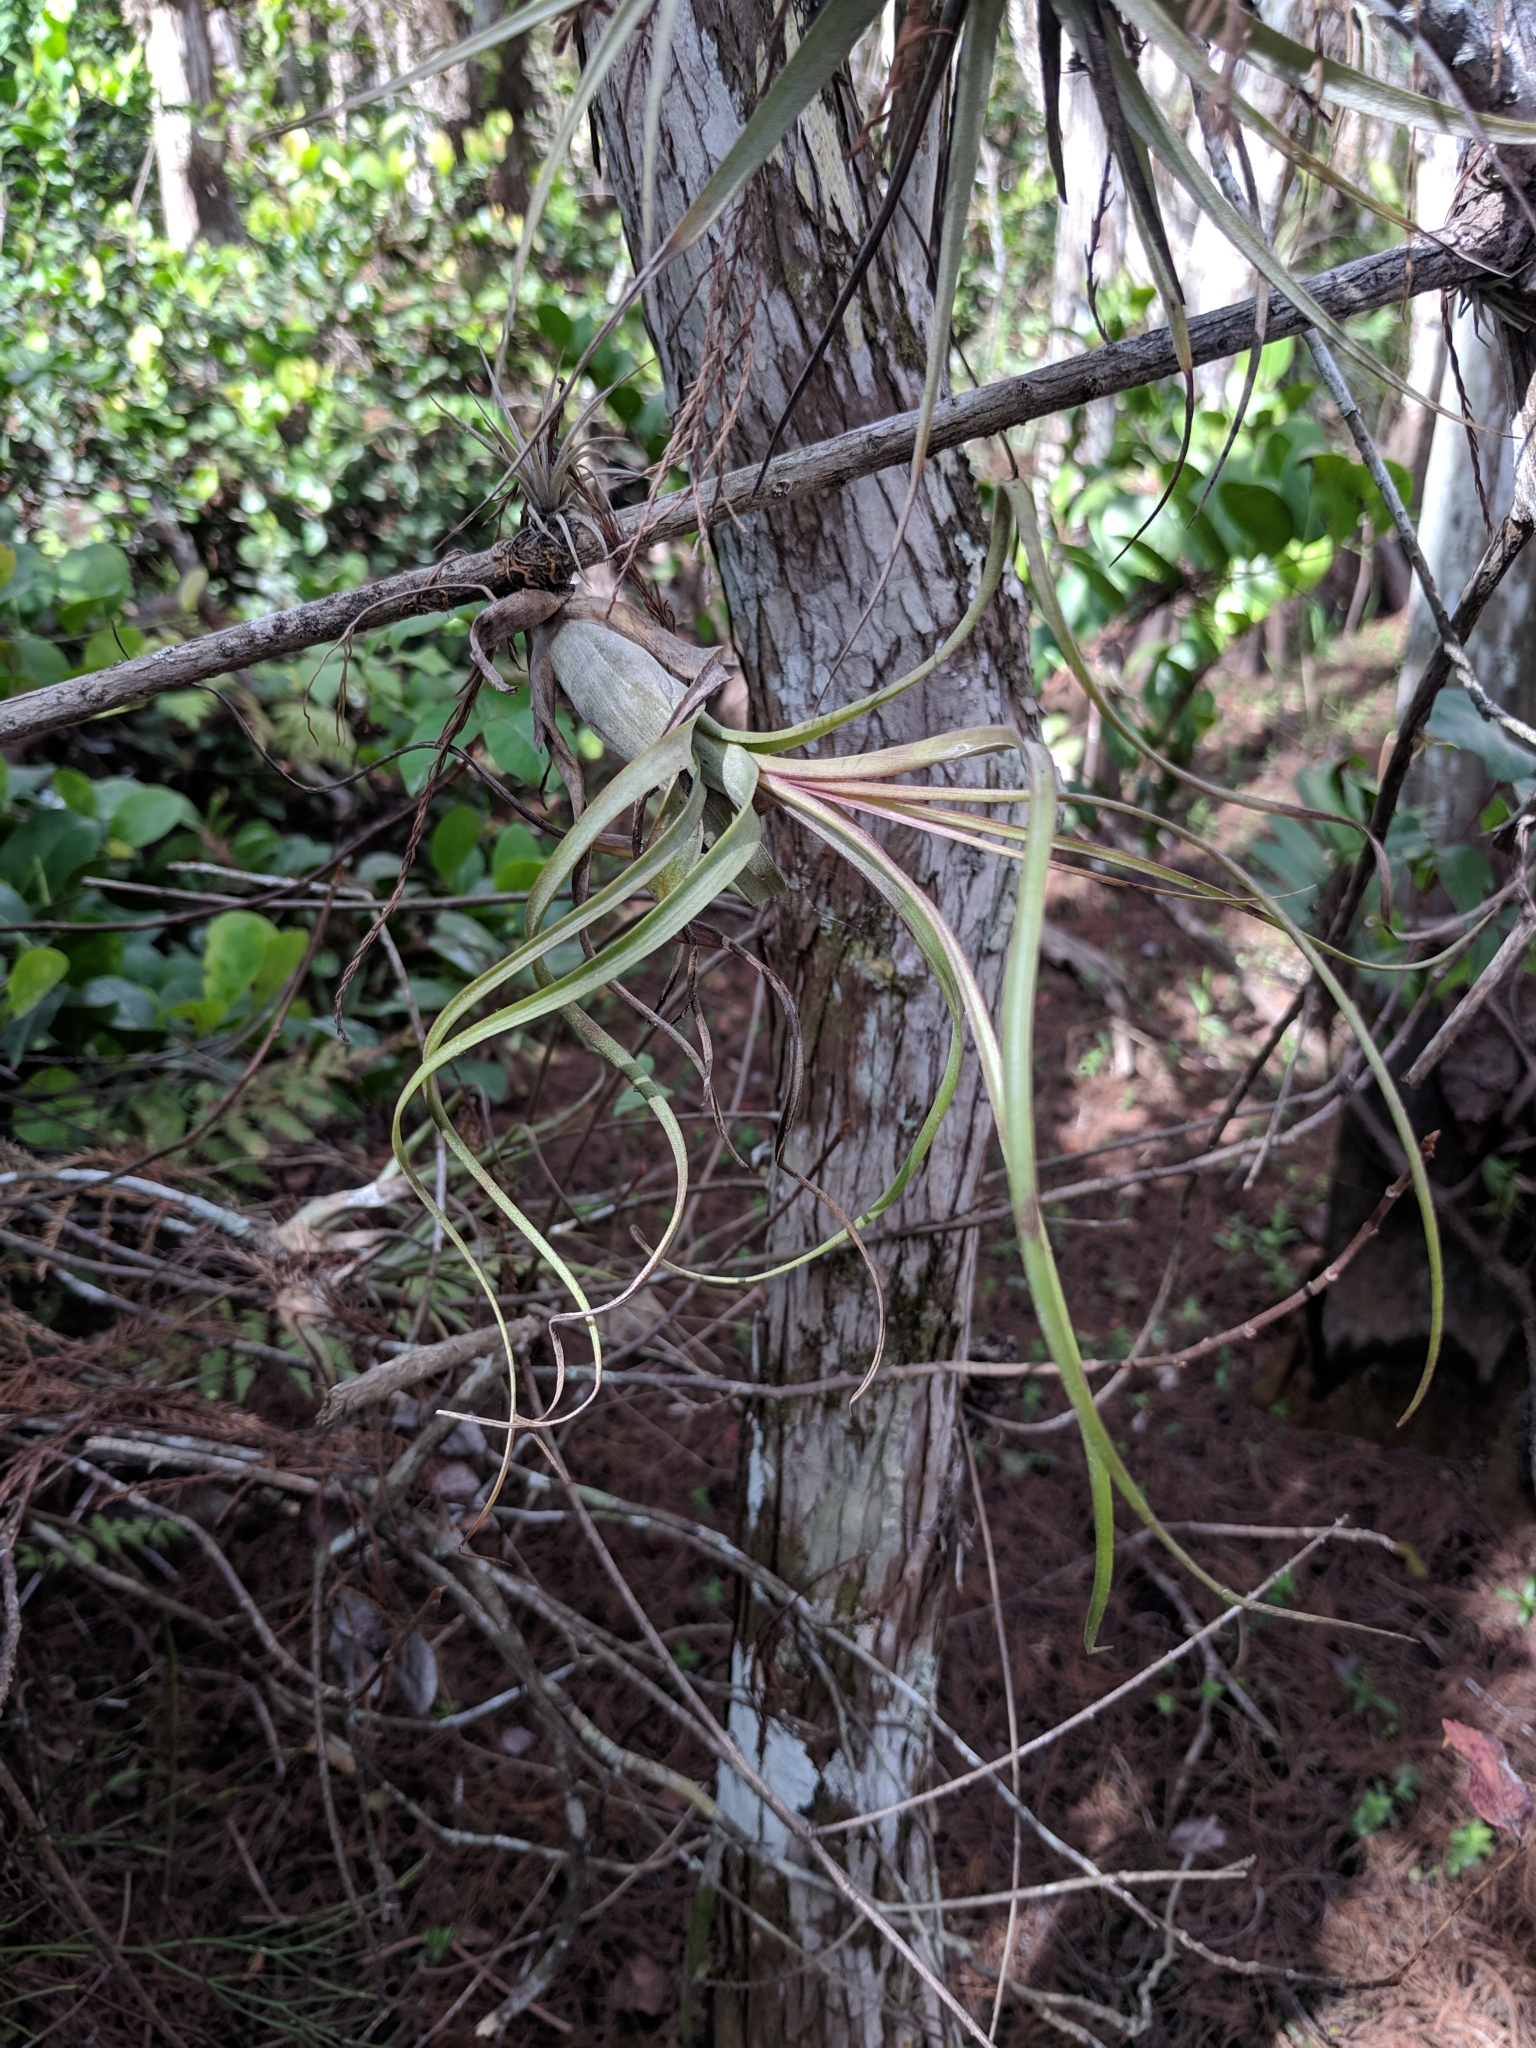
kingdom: Plantae
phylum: Tracheophyta
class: Liliopsida
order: Poales
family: Bromeliaceae
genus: Tillandsia
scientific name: Tillandsia balbisiana
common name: Northern needleleaf
